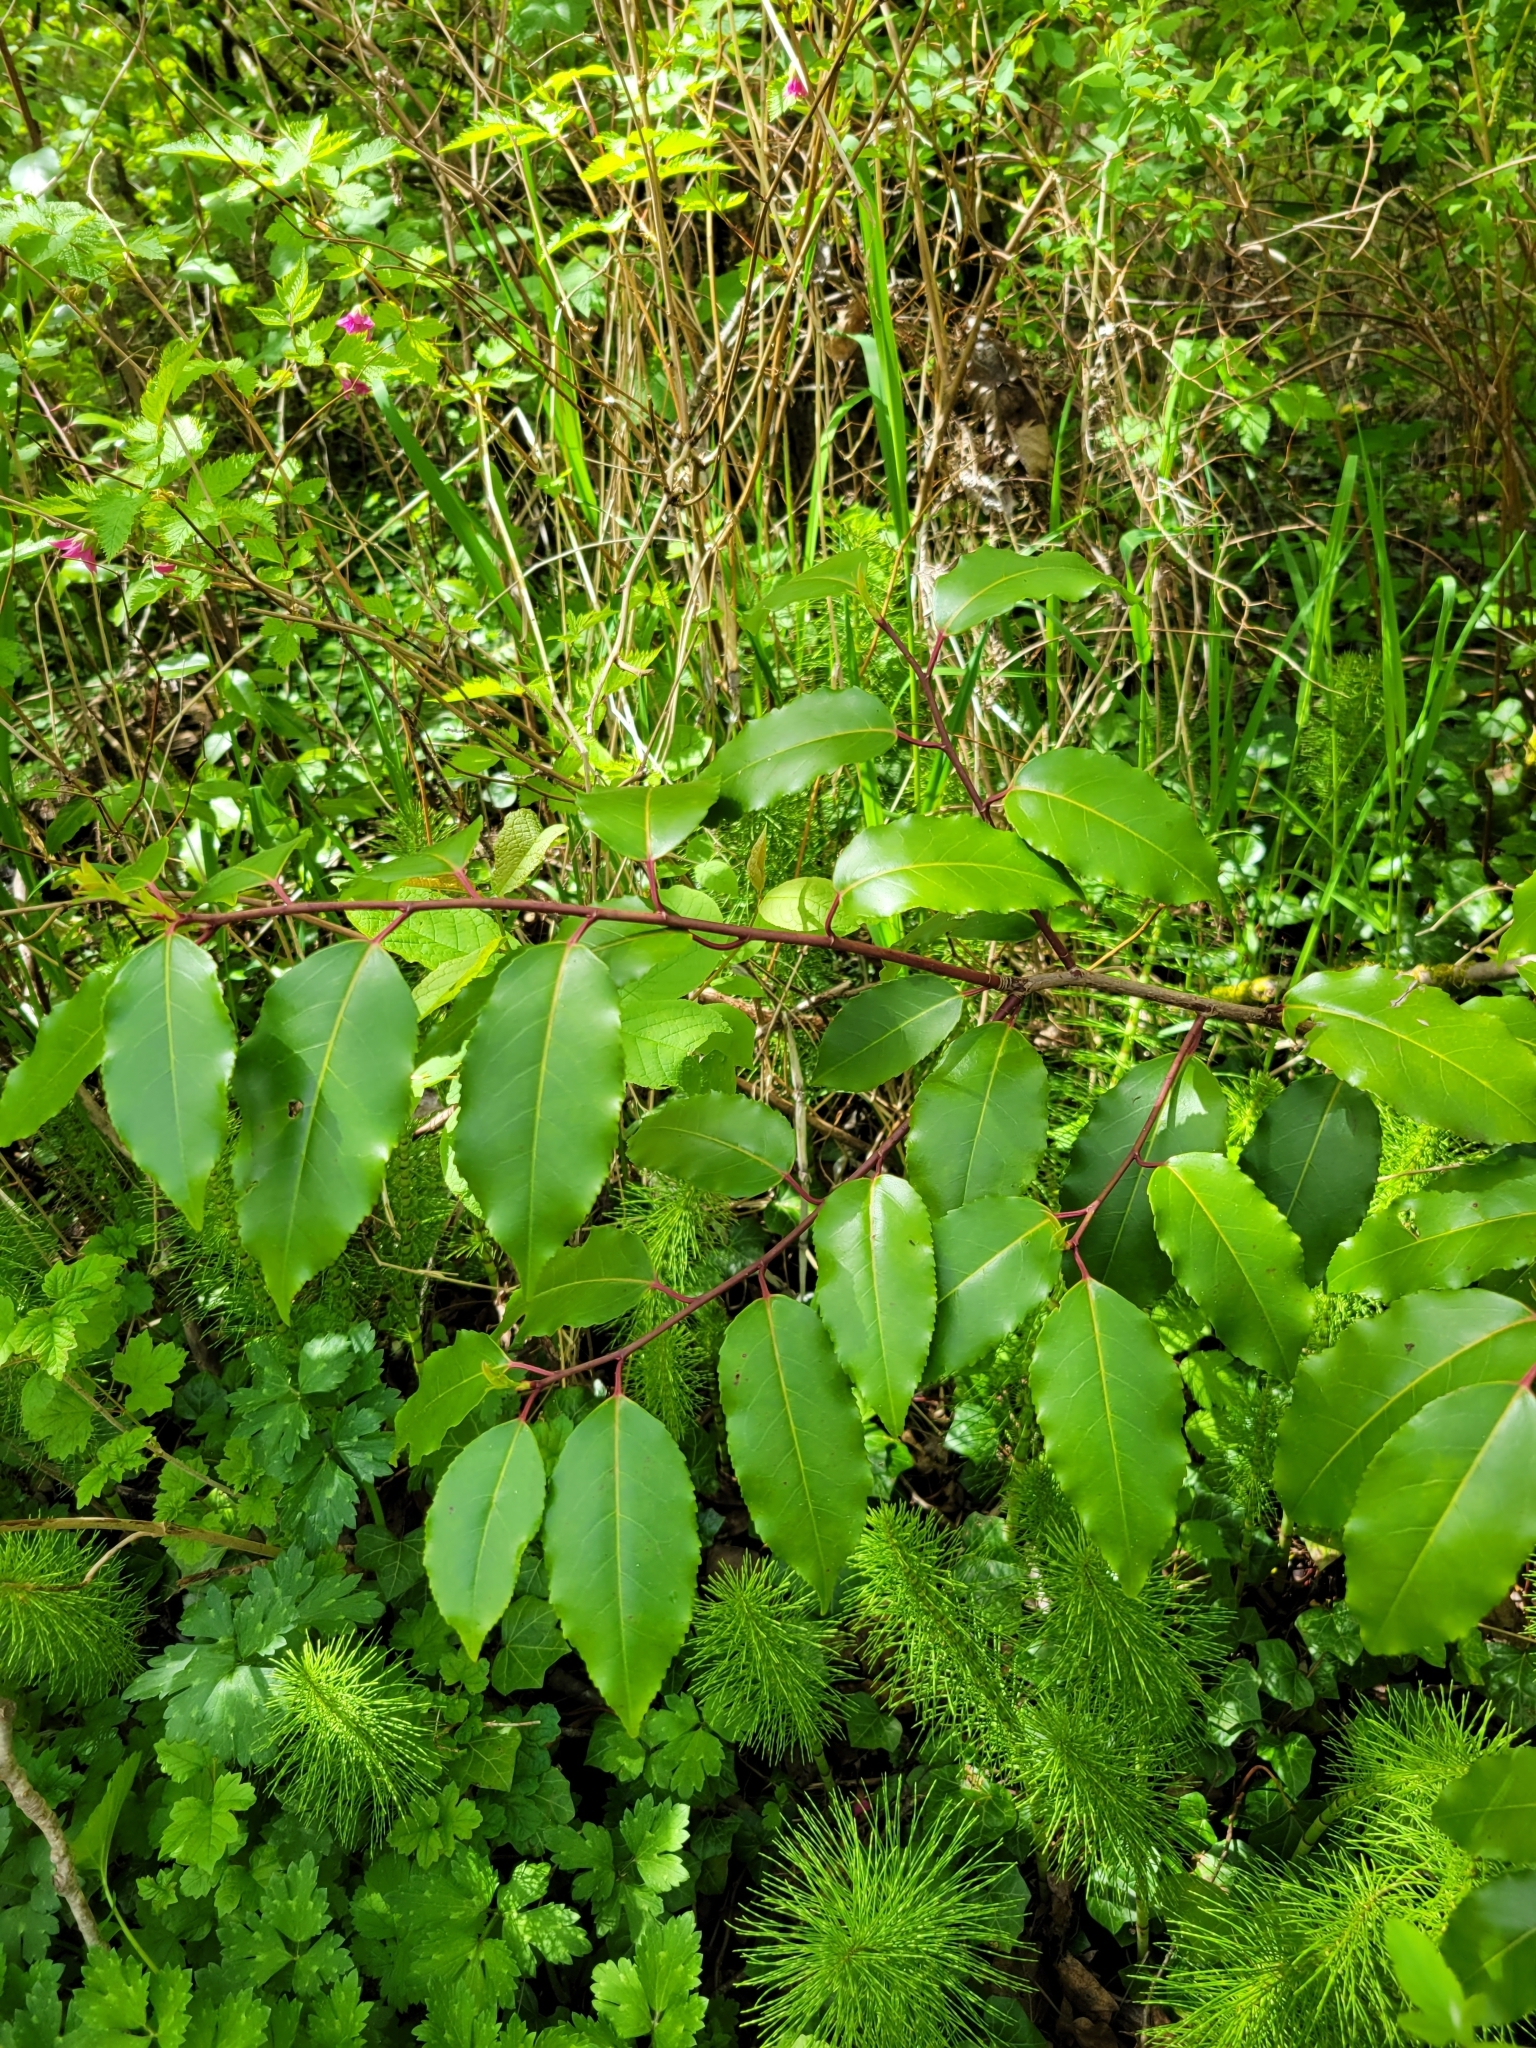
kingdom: Plantae
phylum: Tracheophyta
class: Magnoliopsida
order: Rosales
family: Rosaceae
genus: Prunus
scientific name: Prunus lusitanica
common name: Portugal laurel
